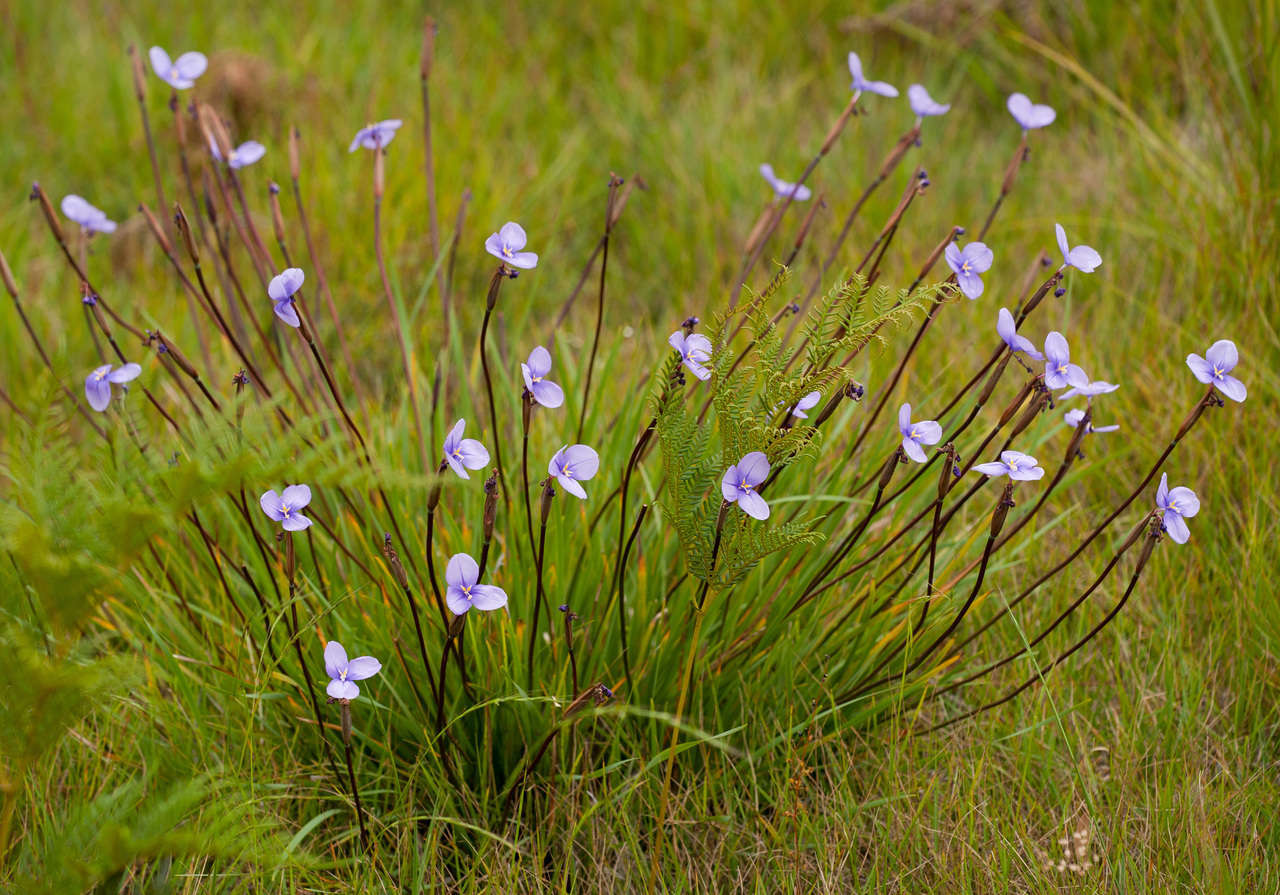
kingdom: Plantae
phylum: Tracheophyta
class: Liliopsida
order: Asparagales
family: Iridaceae
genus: Patersonia
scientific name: Patersonia occidentalis
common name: Long purple-flag
